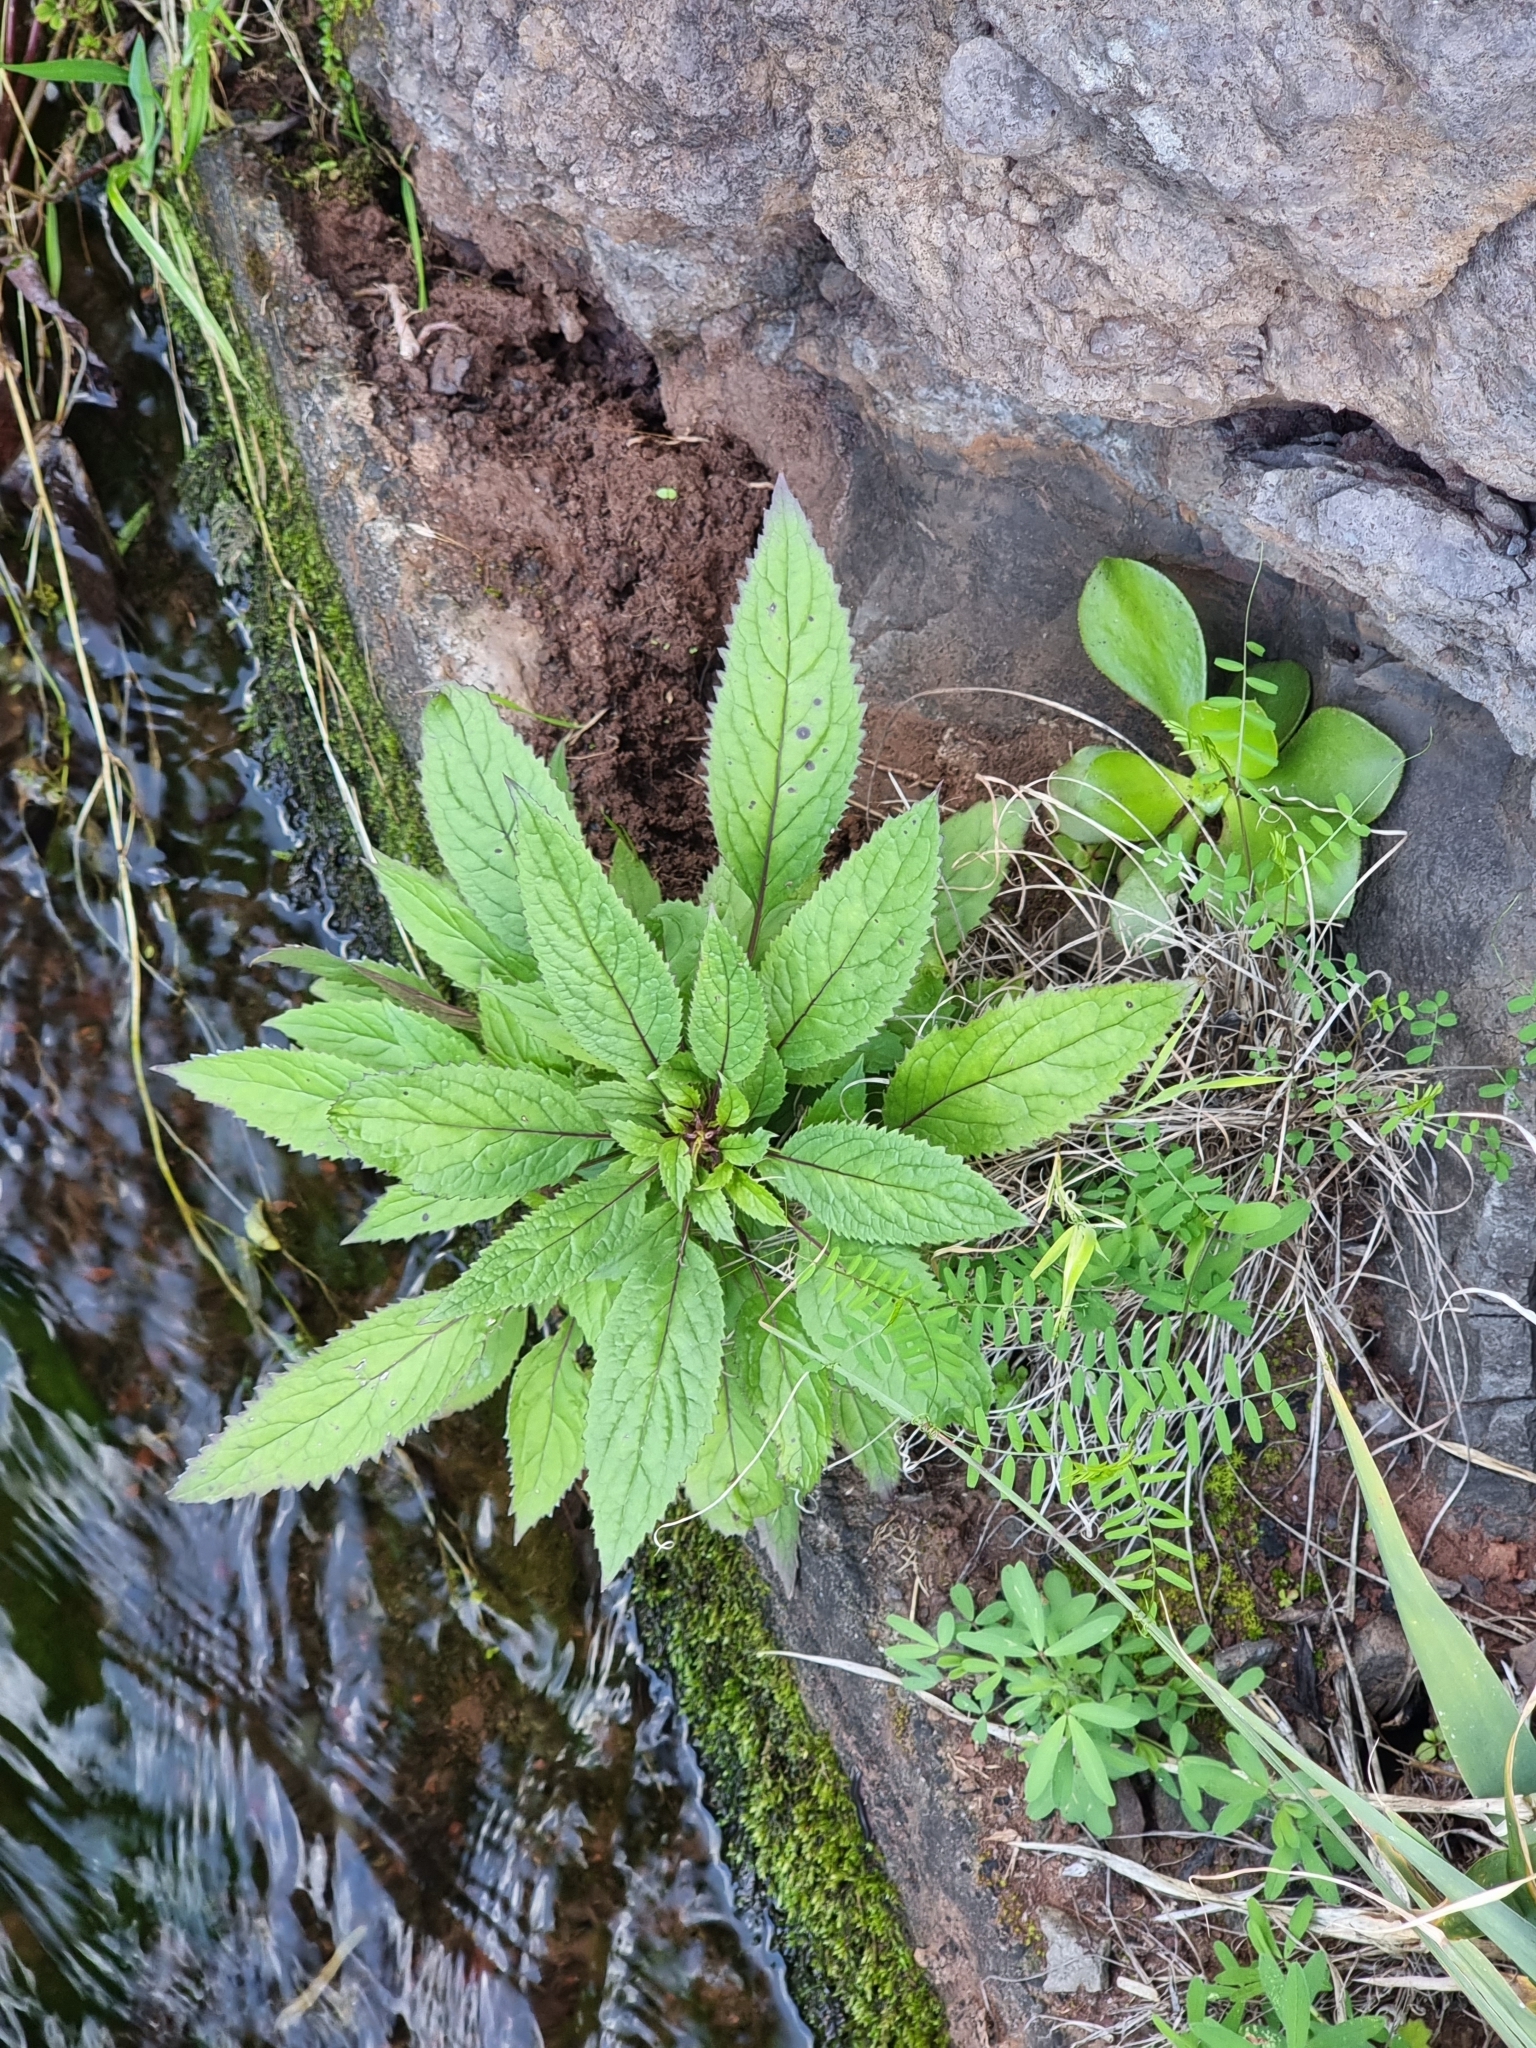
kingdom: Plantae
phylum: Tracheophyta
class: Magnoliopsida
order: Asterales
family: Campanulaceae
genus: Trachelium
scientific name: Trachelium caeruleum
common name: Throatwort
